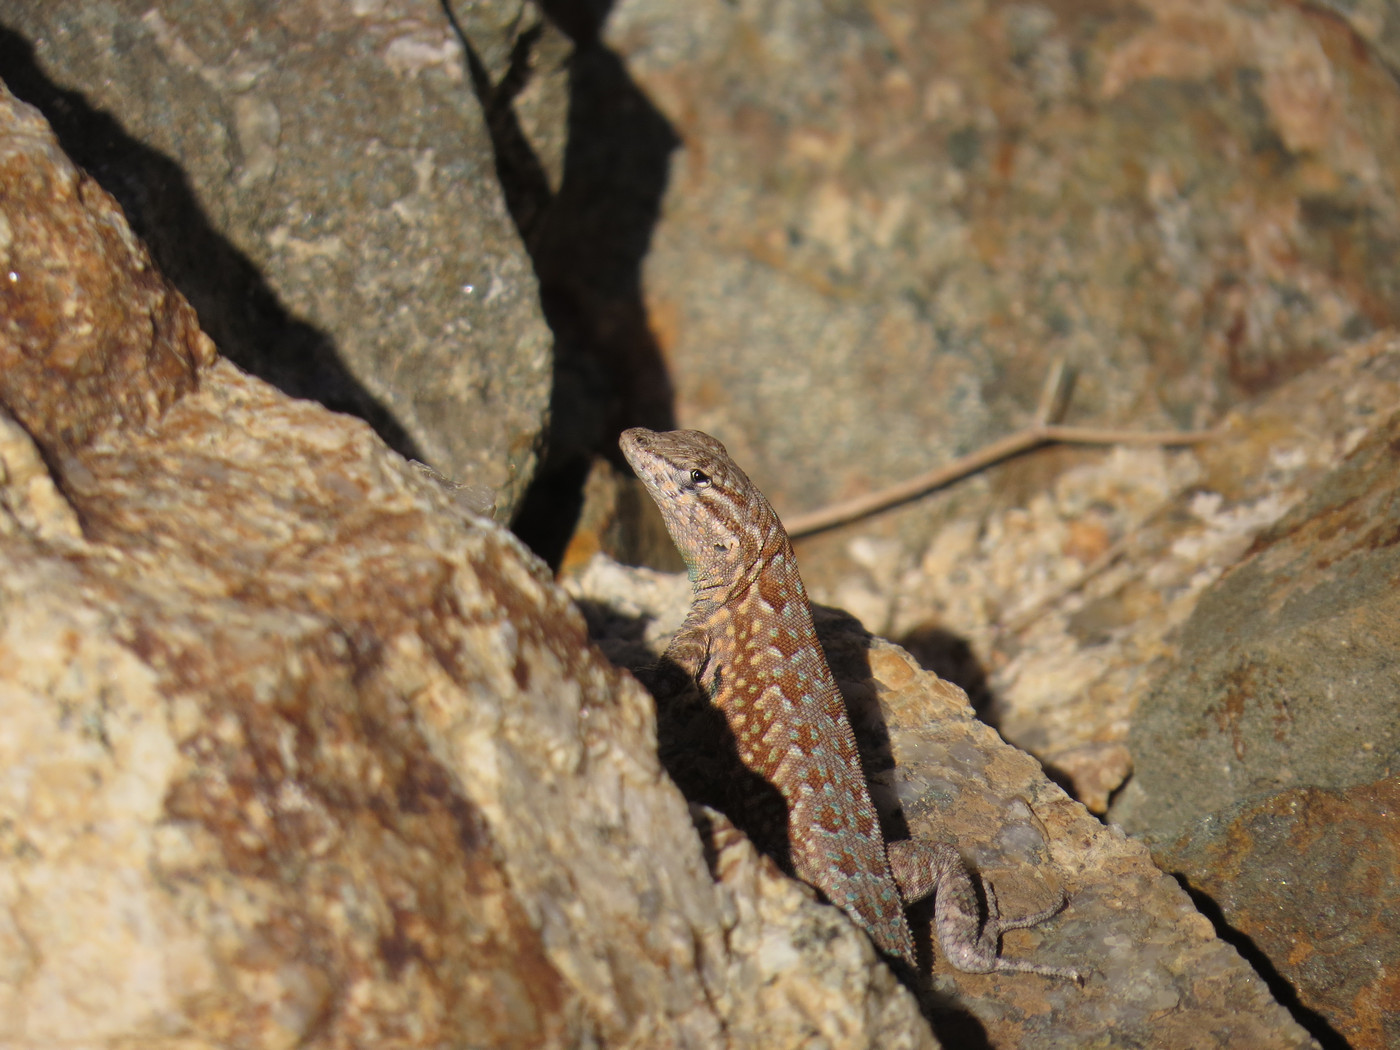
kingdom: Animalia
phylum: Chordata
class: Squamata
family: Phrynosomatidae
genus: Uta
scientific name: Uta stansburiana
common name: Side-blotched lizard
